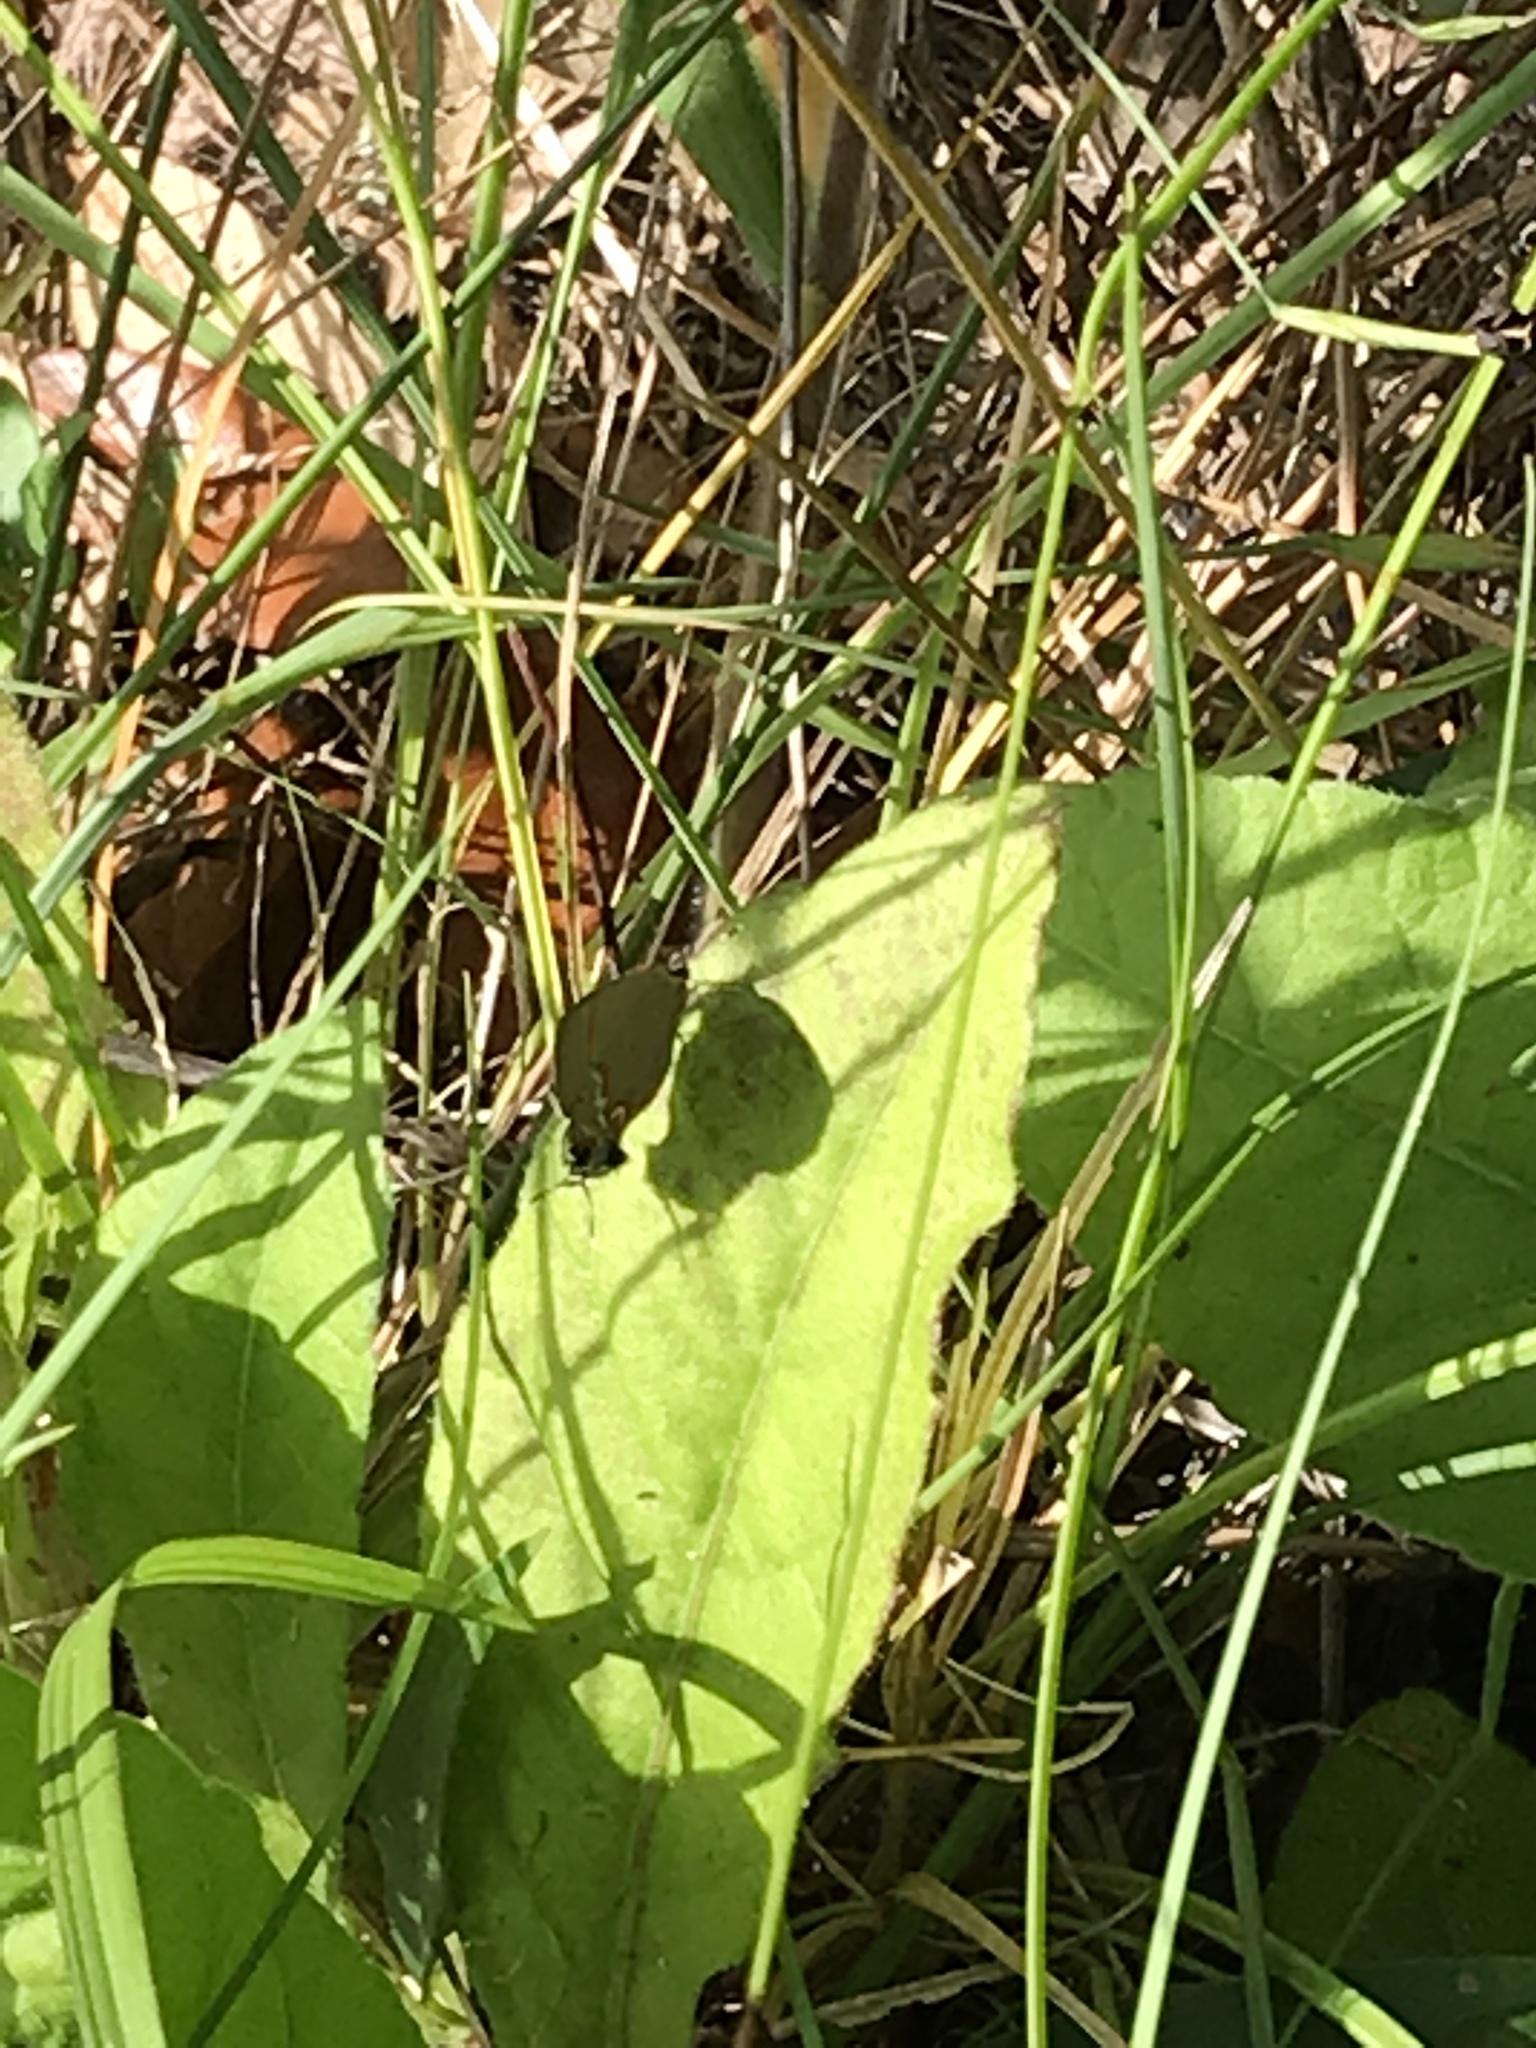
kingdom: Animalia
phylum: Arthropoda
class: Insecta
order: Lepidoptera
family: Lycaenidae
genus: Calycopis
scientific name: Calycopis cecrops
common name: Red-banded hairstreak
